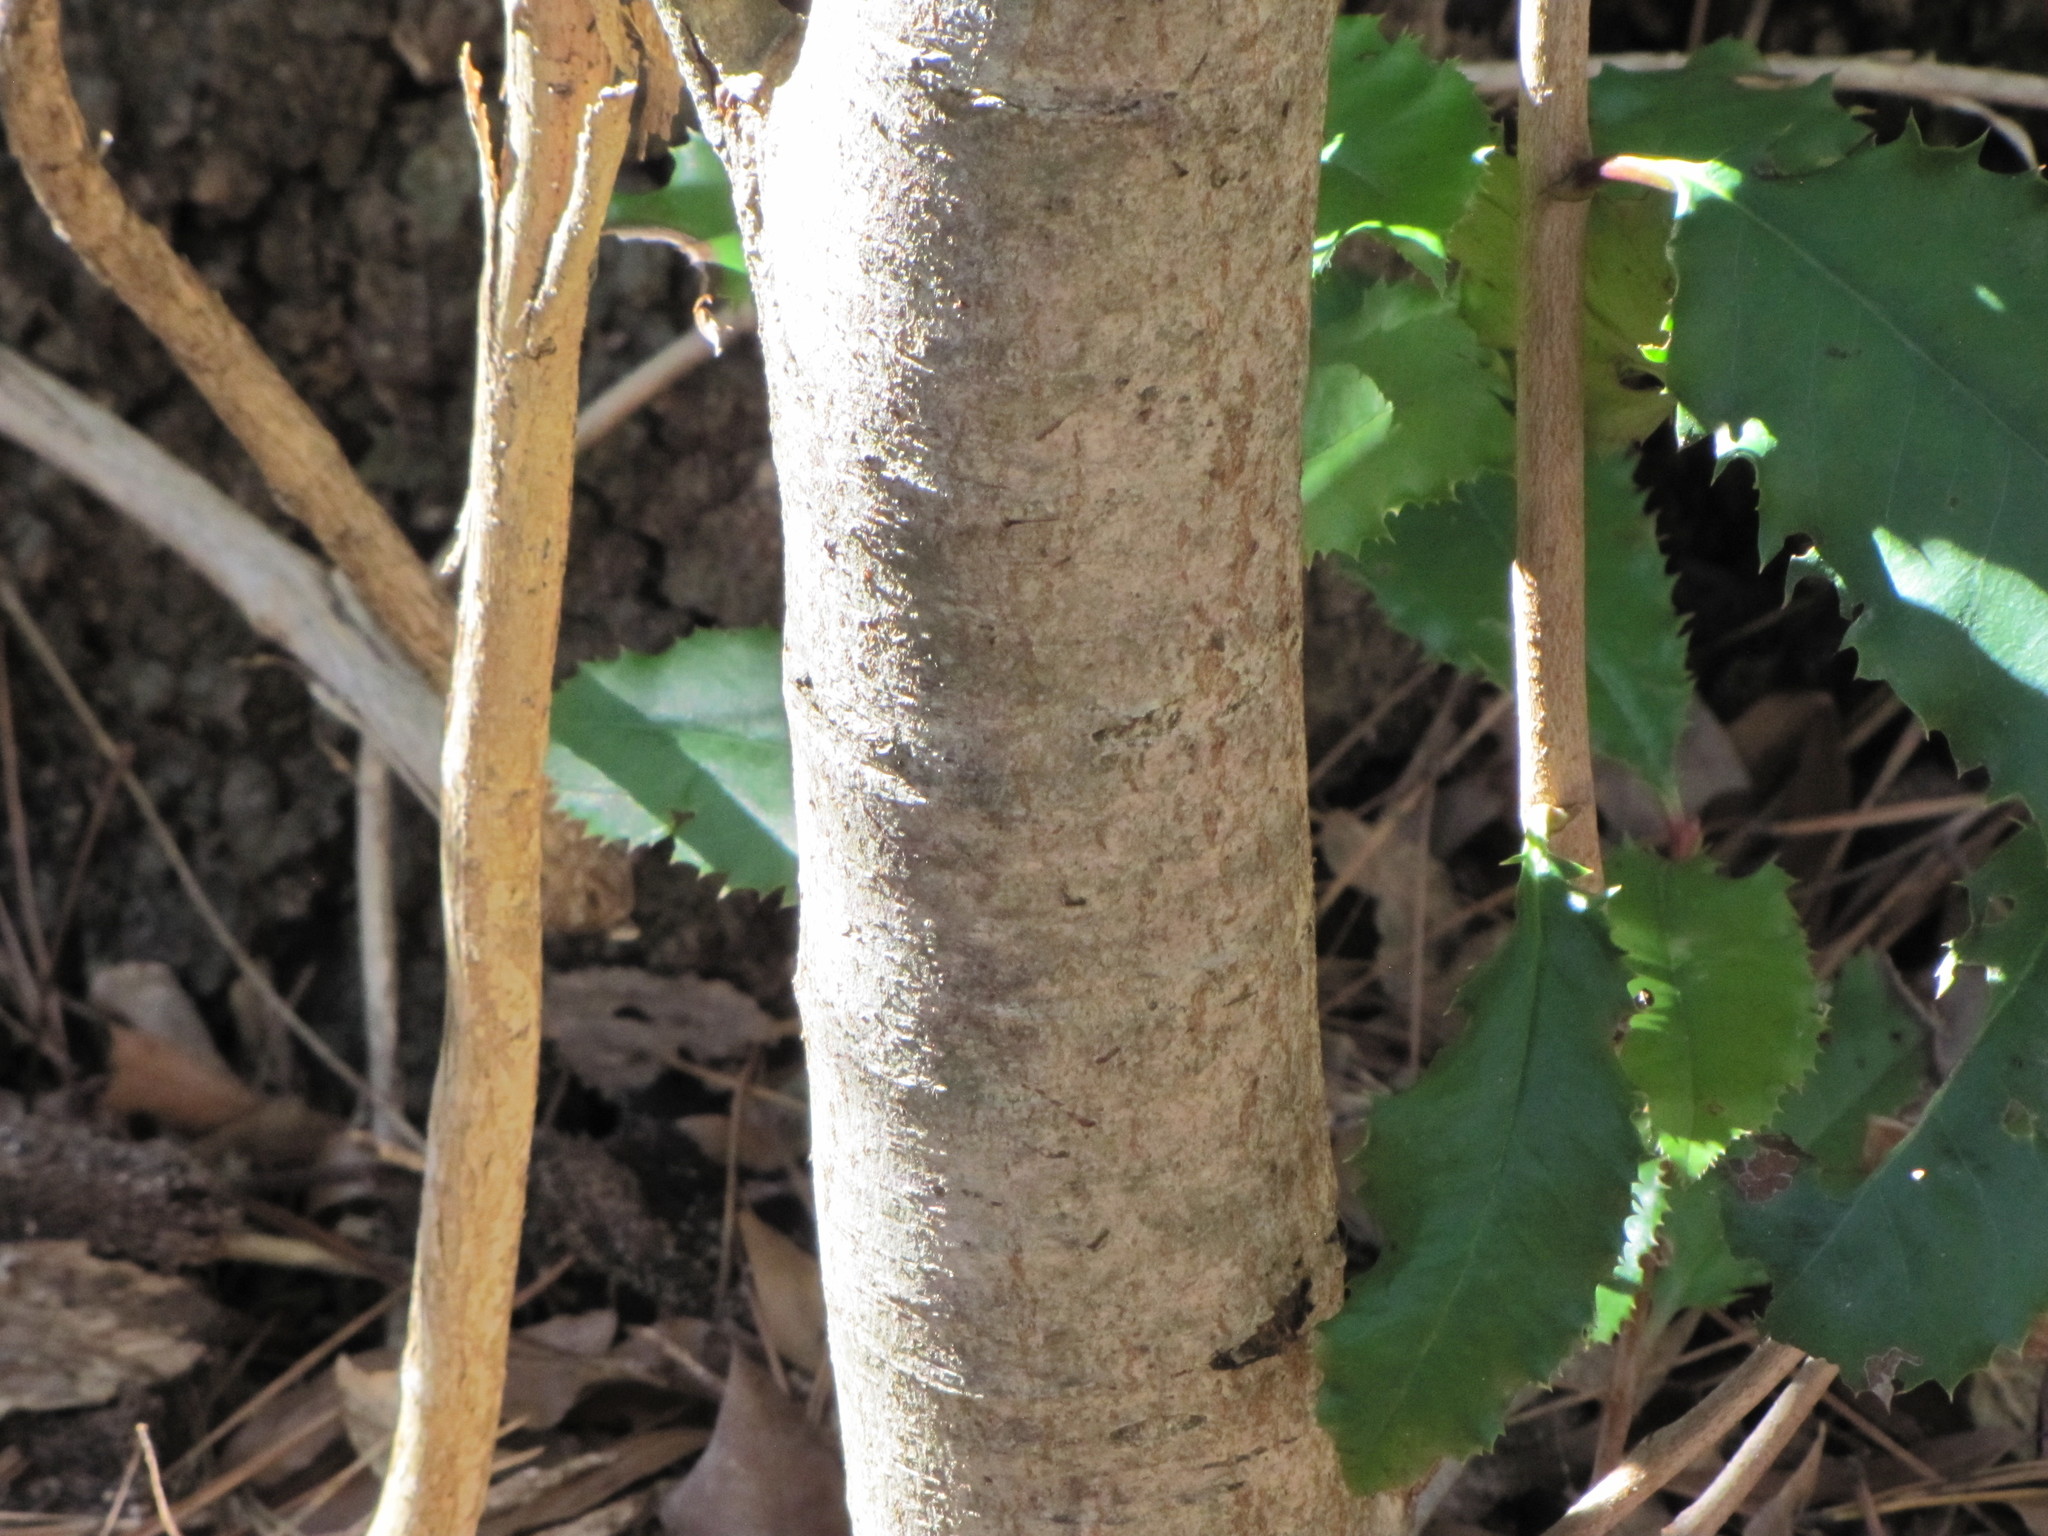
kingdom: Plantae
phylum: Tracheophyta
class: Magnoliopsida
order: Rosales
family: Rosaceae
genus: Photinia
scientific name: Photinia serratifolia
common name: Taiwanese photinia
